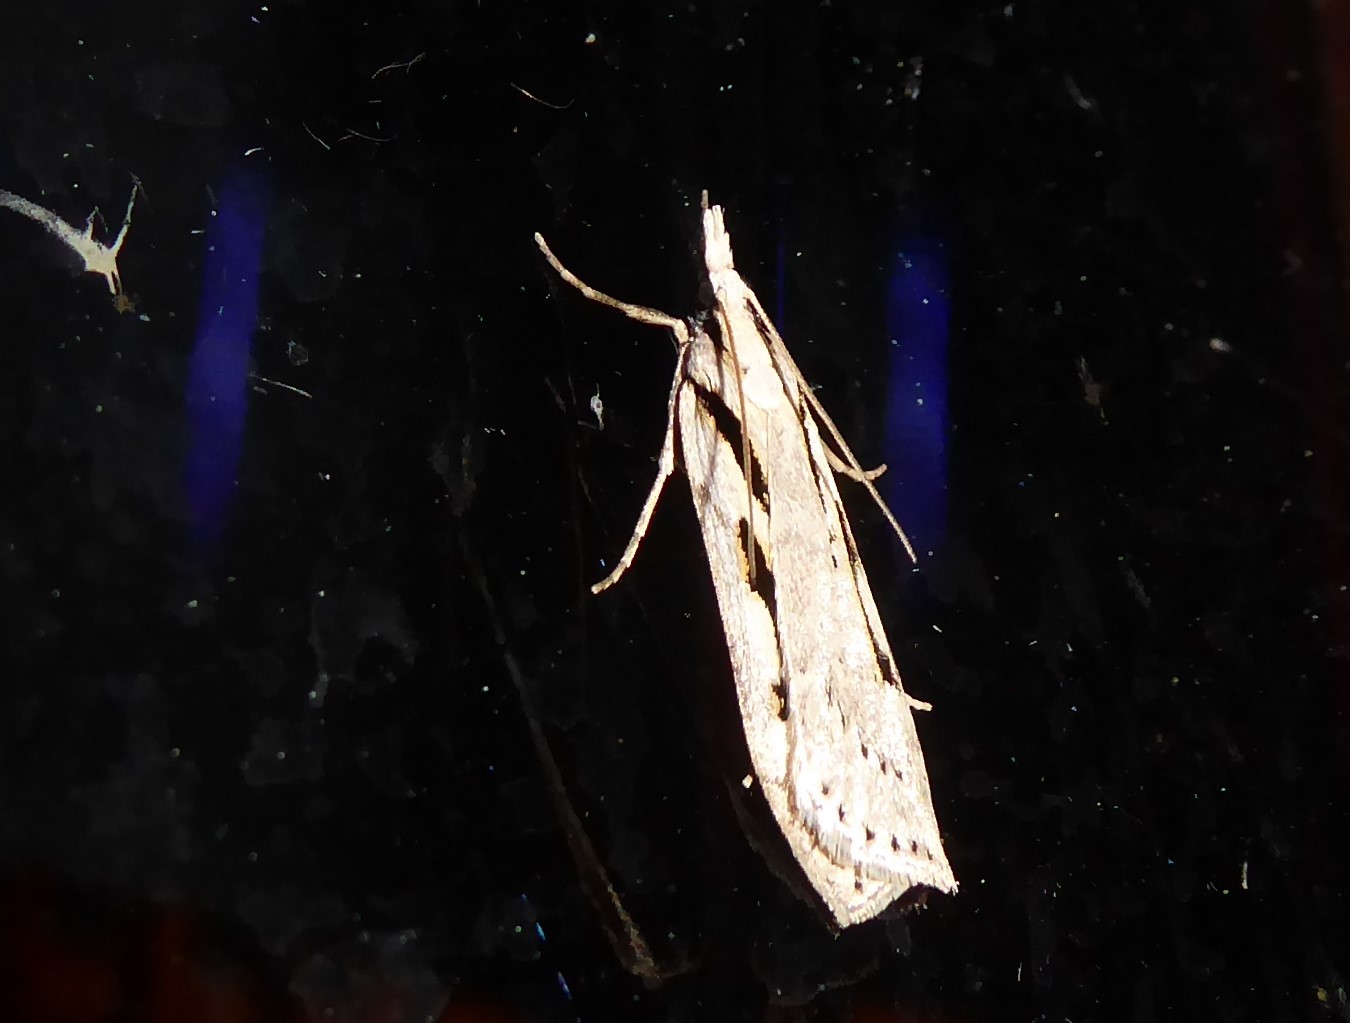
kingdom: Animalia
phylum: Arthropoda
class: Insecta
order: Lepidoptera
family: Crambidae
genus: Scoparia
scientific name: Scoparia rotuellus
